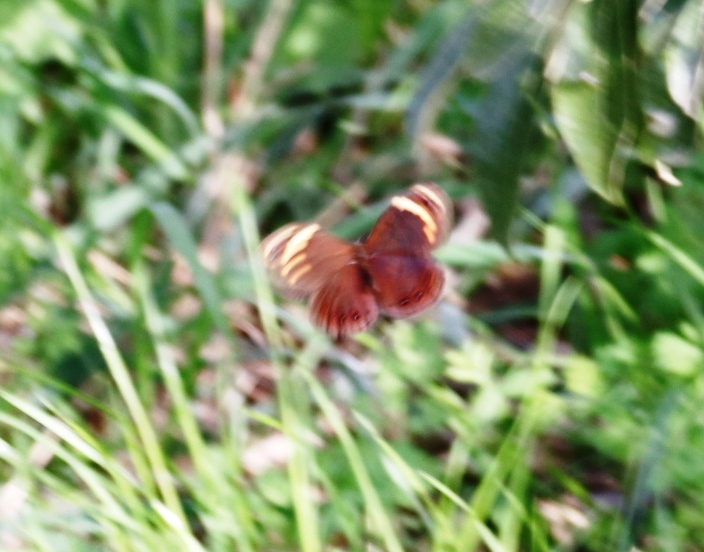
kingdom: Animalia
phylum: Arthropoda
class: Insecta
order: Lepidoptera
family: Nymphalidae
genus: Dira
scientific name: Dira clytus
